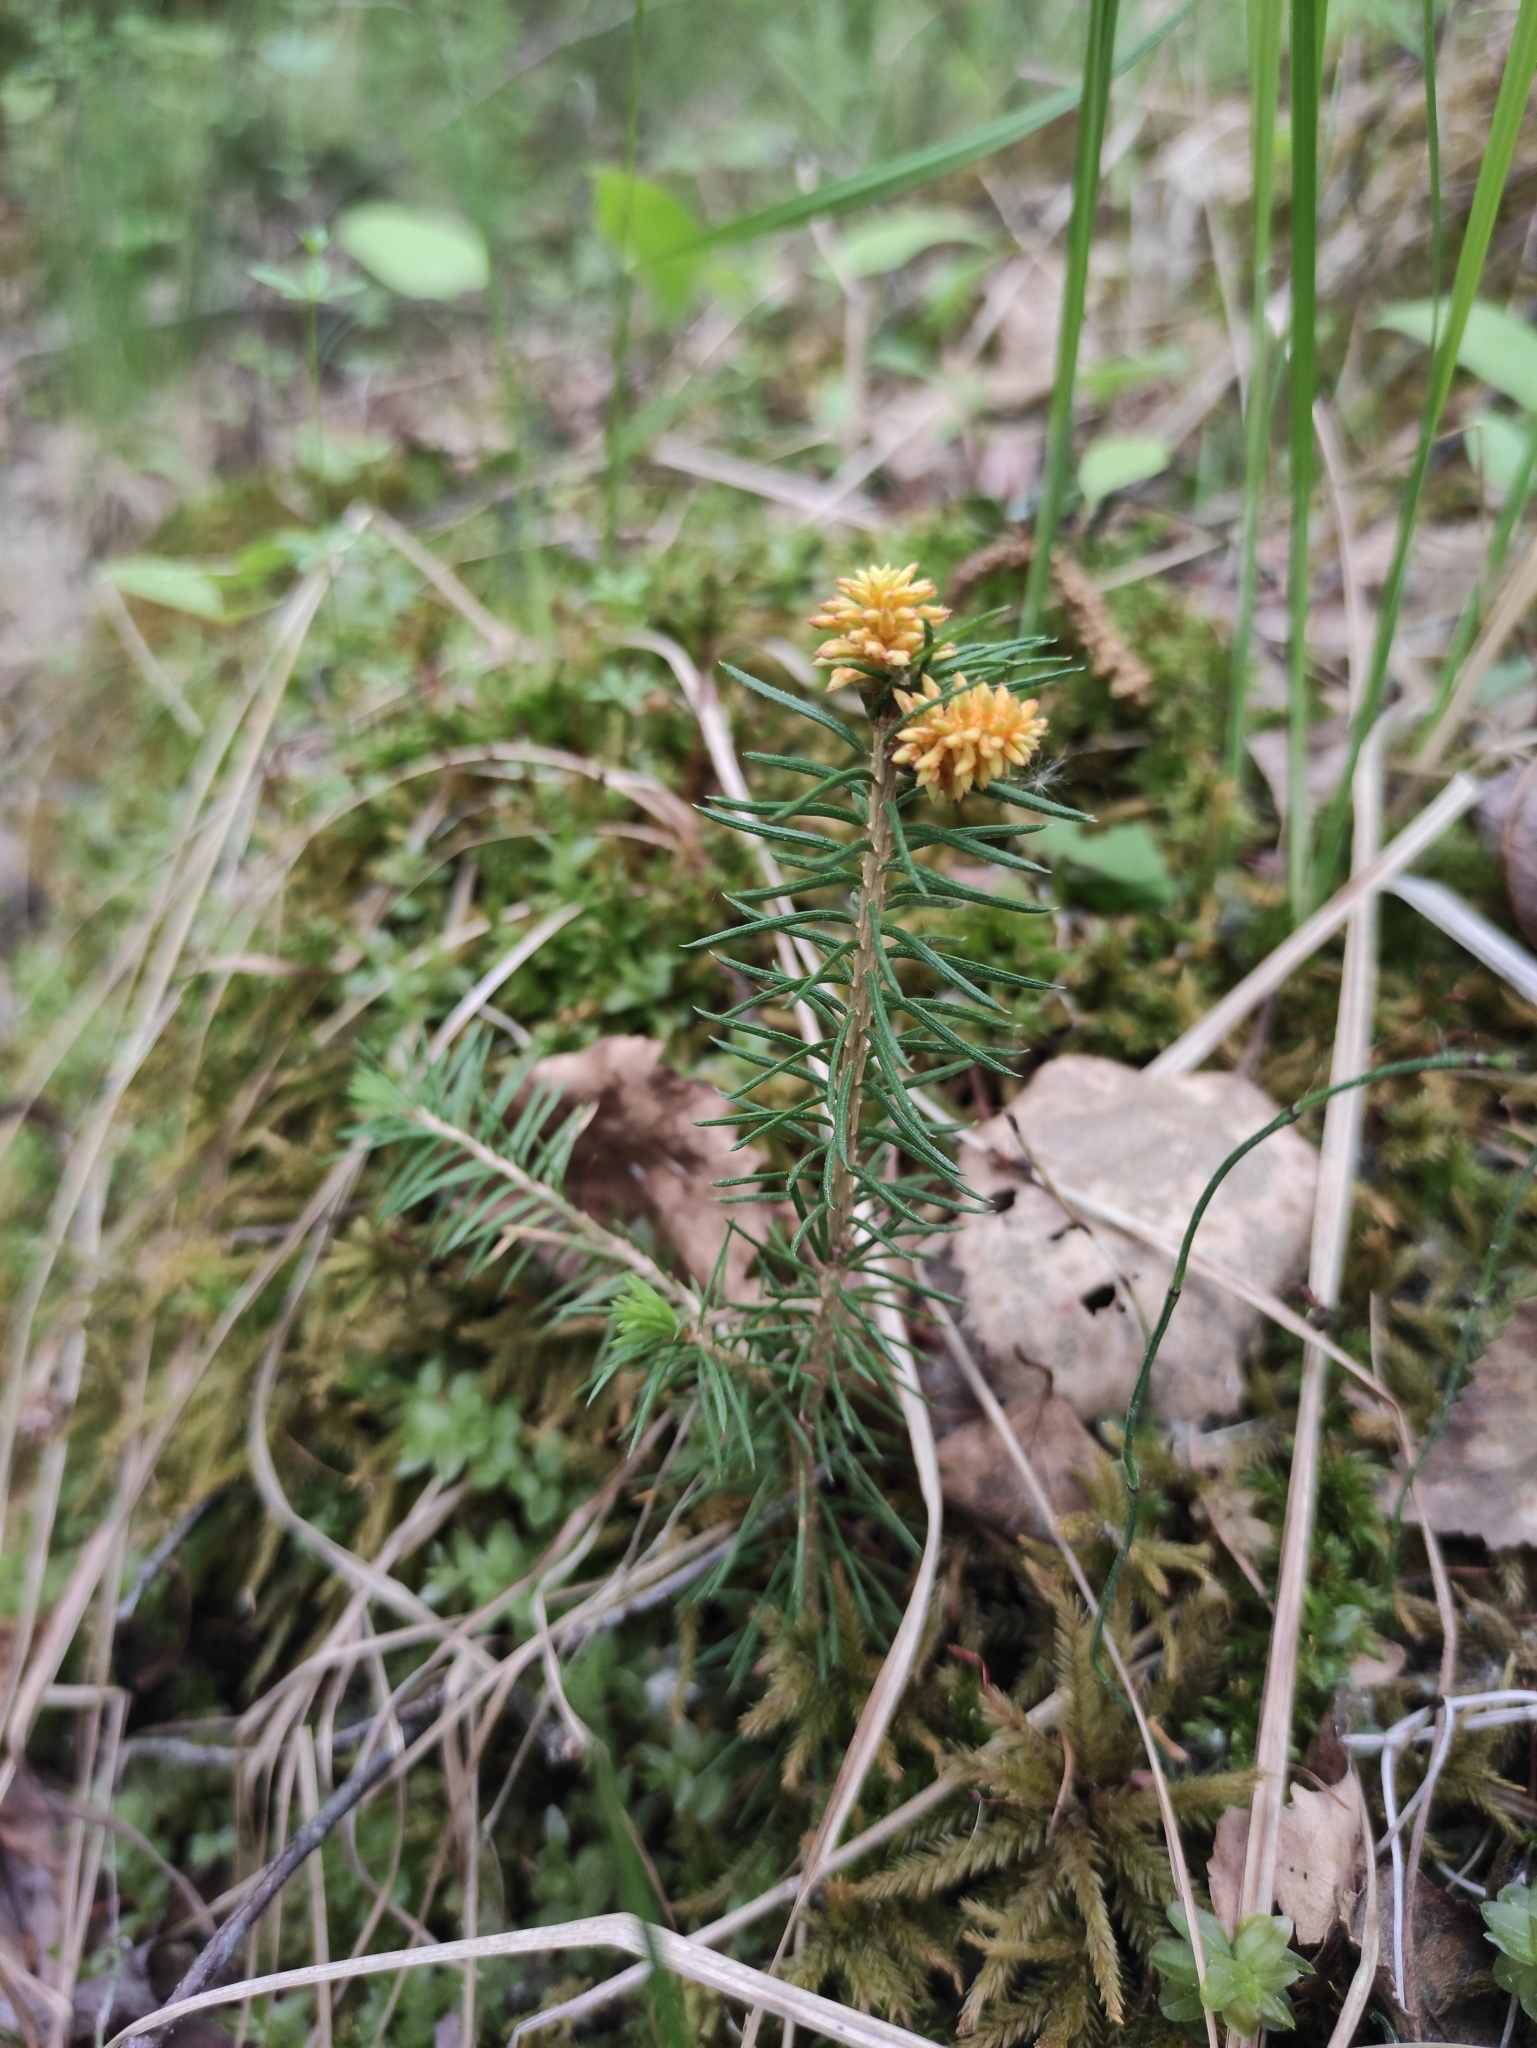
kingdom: Plantae
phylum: Tracheophyta
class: Pinopsida
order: Pinales
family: Pinaceae
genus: Picea
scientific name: Picea obovata
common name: Siberian spruce
